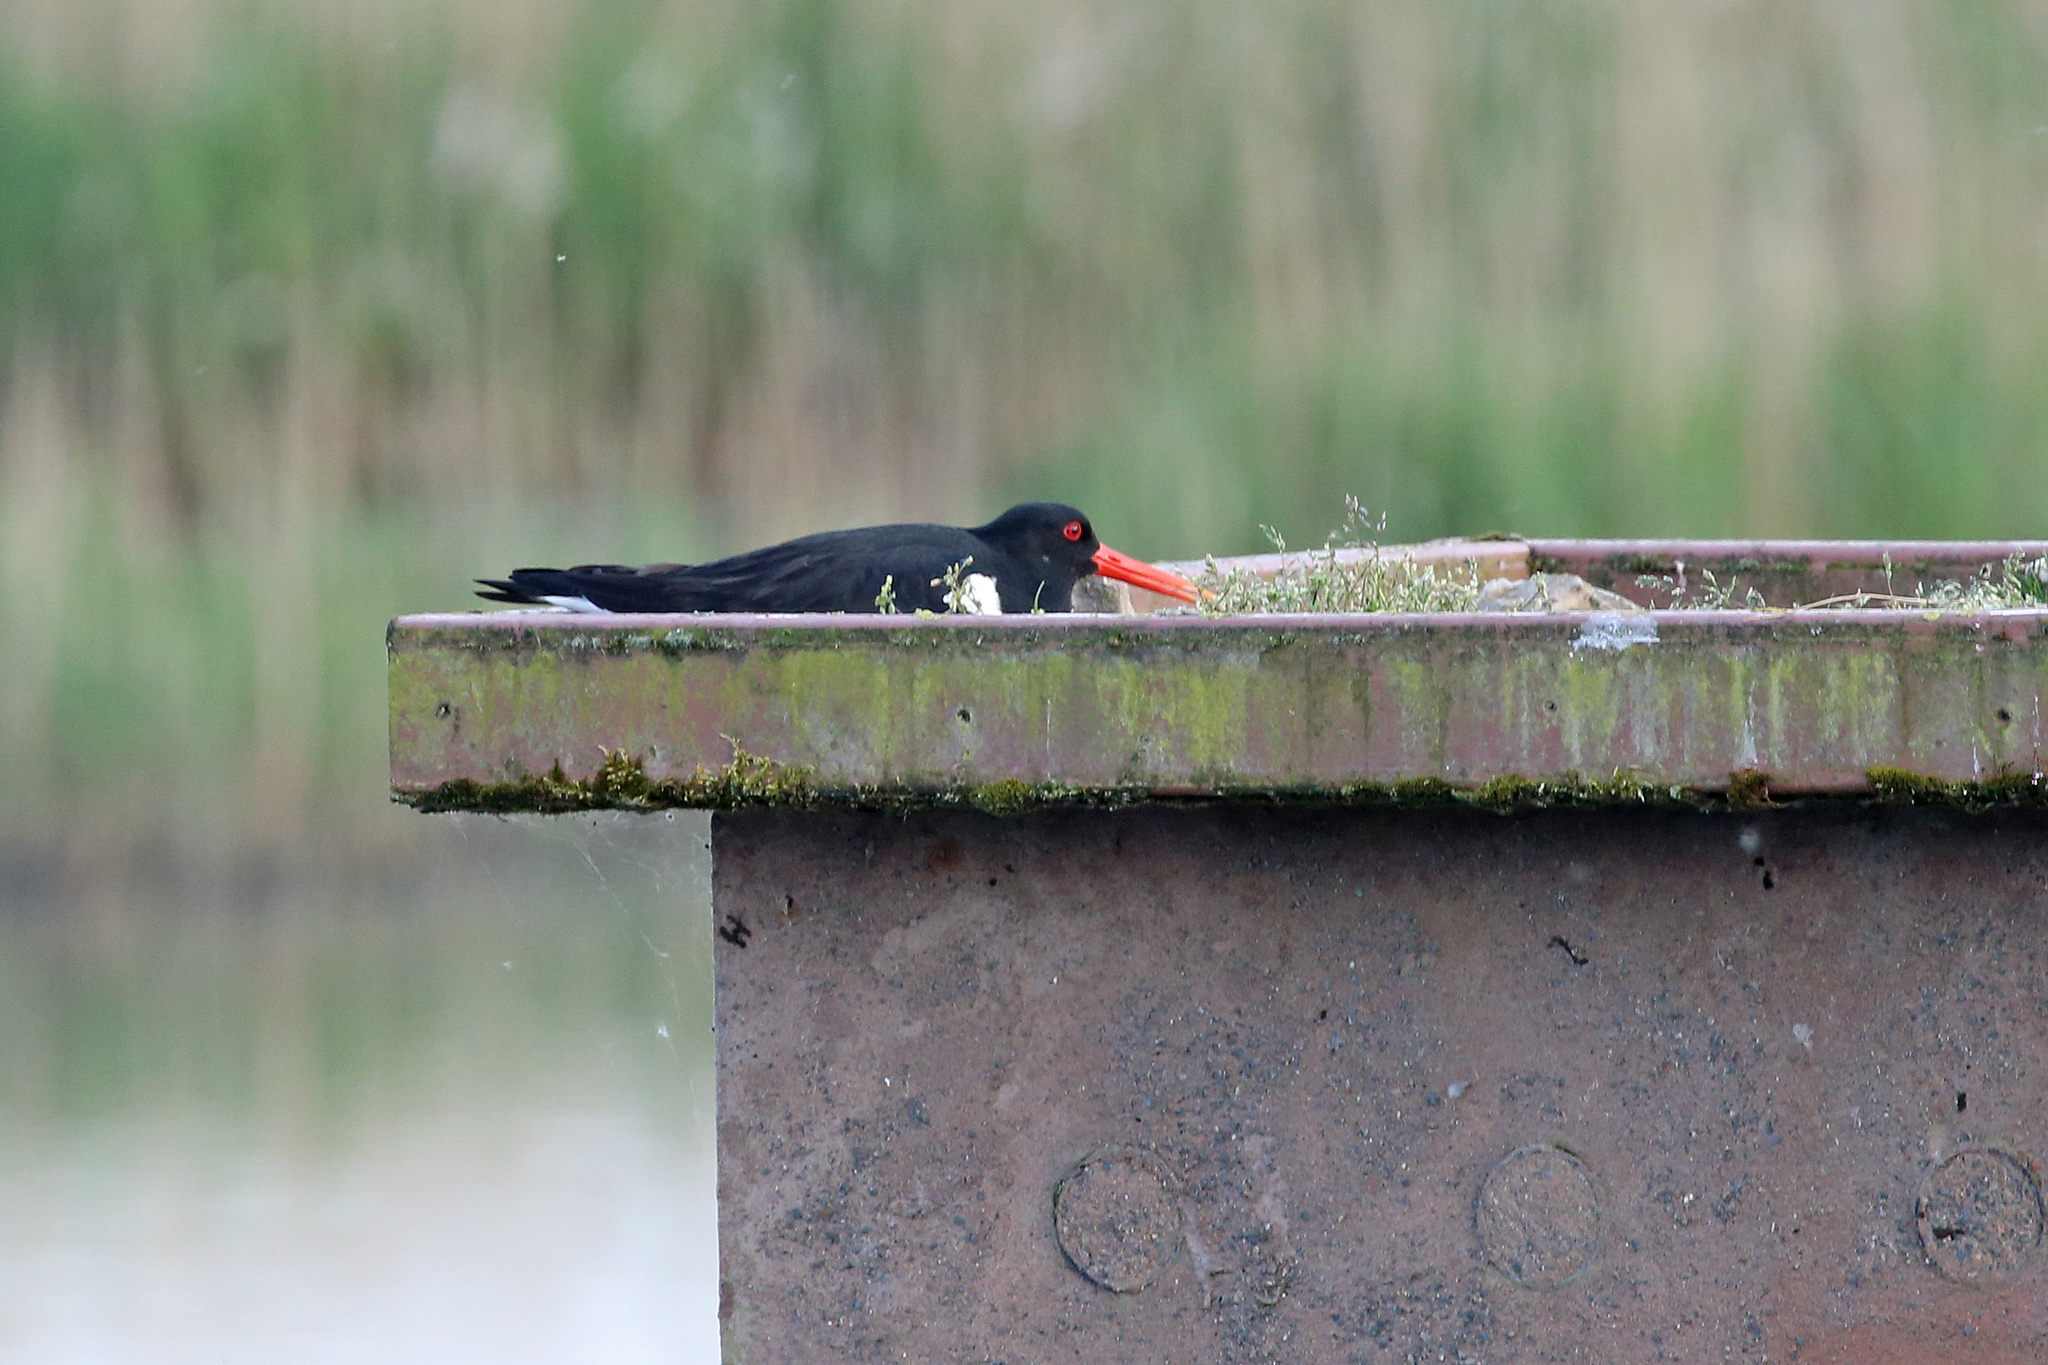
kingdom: Animalia
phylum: Chordata
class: Aves
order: Charadriiformes
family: Haematopodidae
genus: Haematopus
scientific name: Haematopus ostralegus
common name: Eurasian oystercatcher
